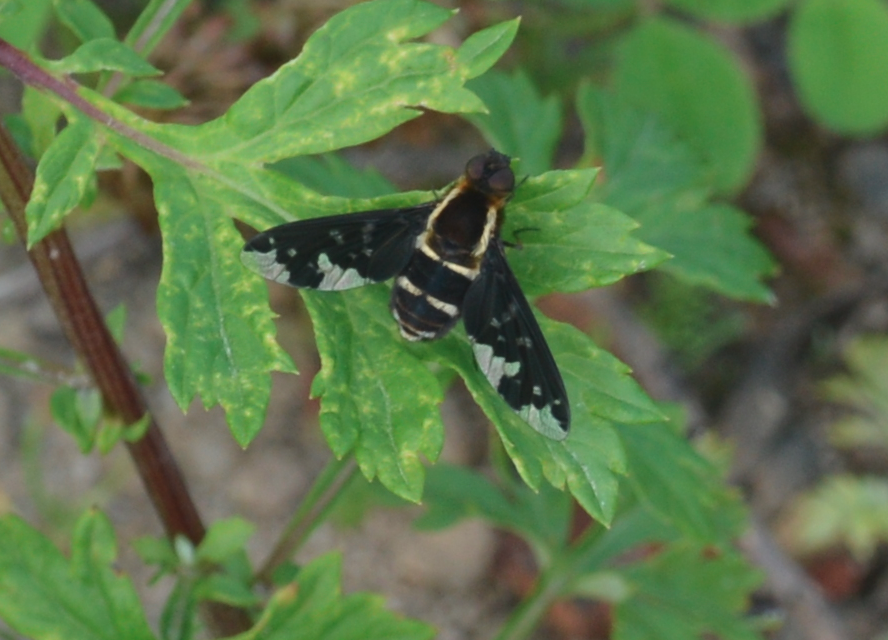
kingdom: Animalia
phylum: Arthropoda
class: Insecta
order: Diptera
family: Bombyliidae
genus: Hemipenthes
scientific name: Hemipenthes maura
